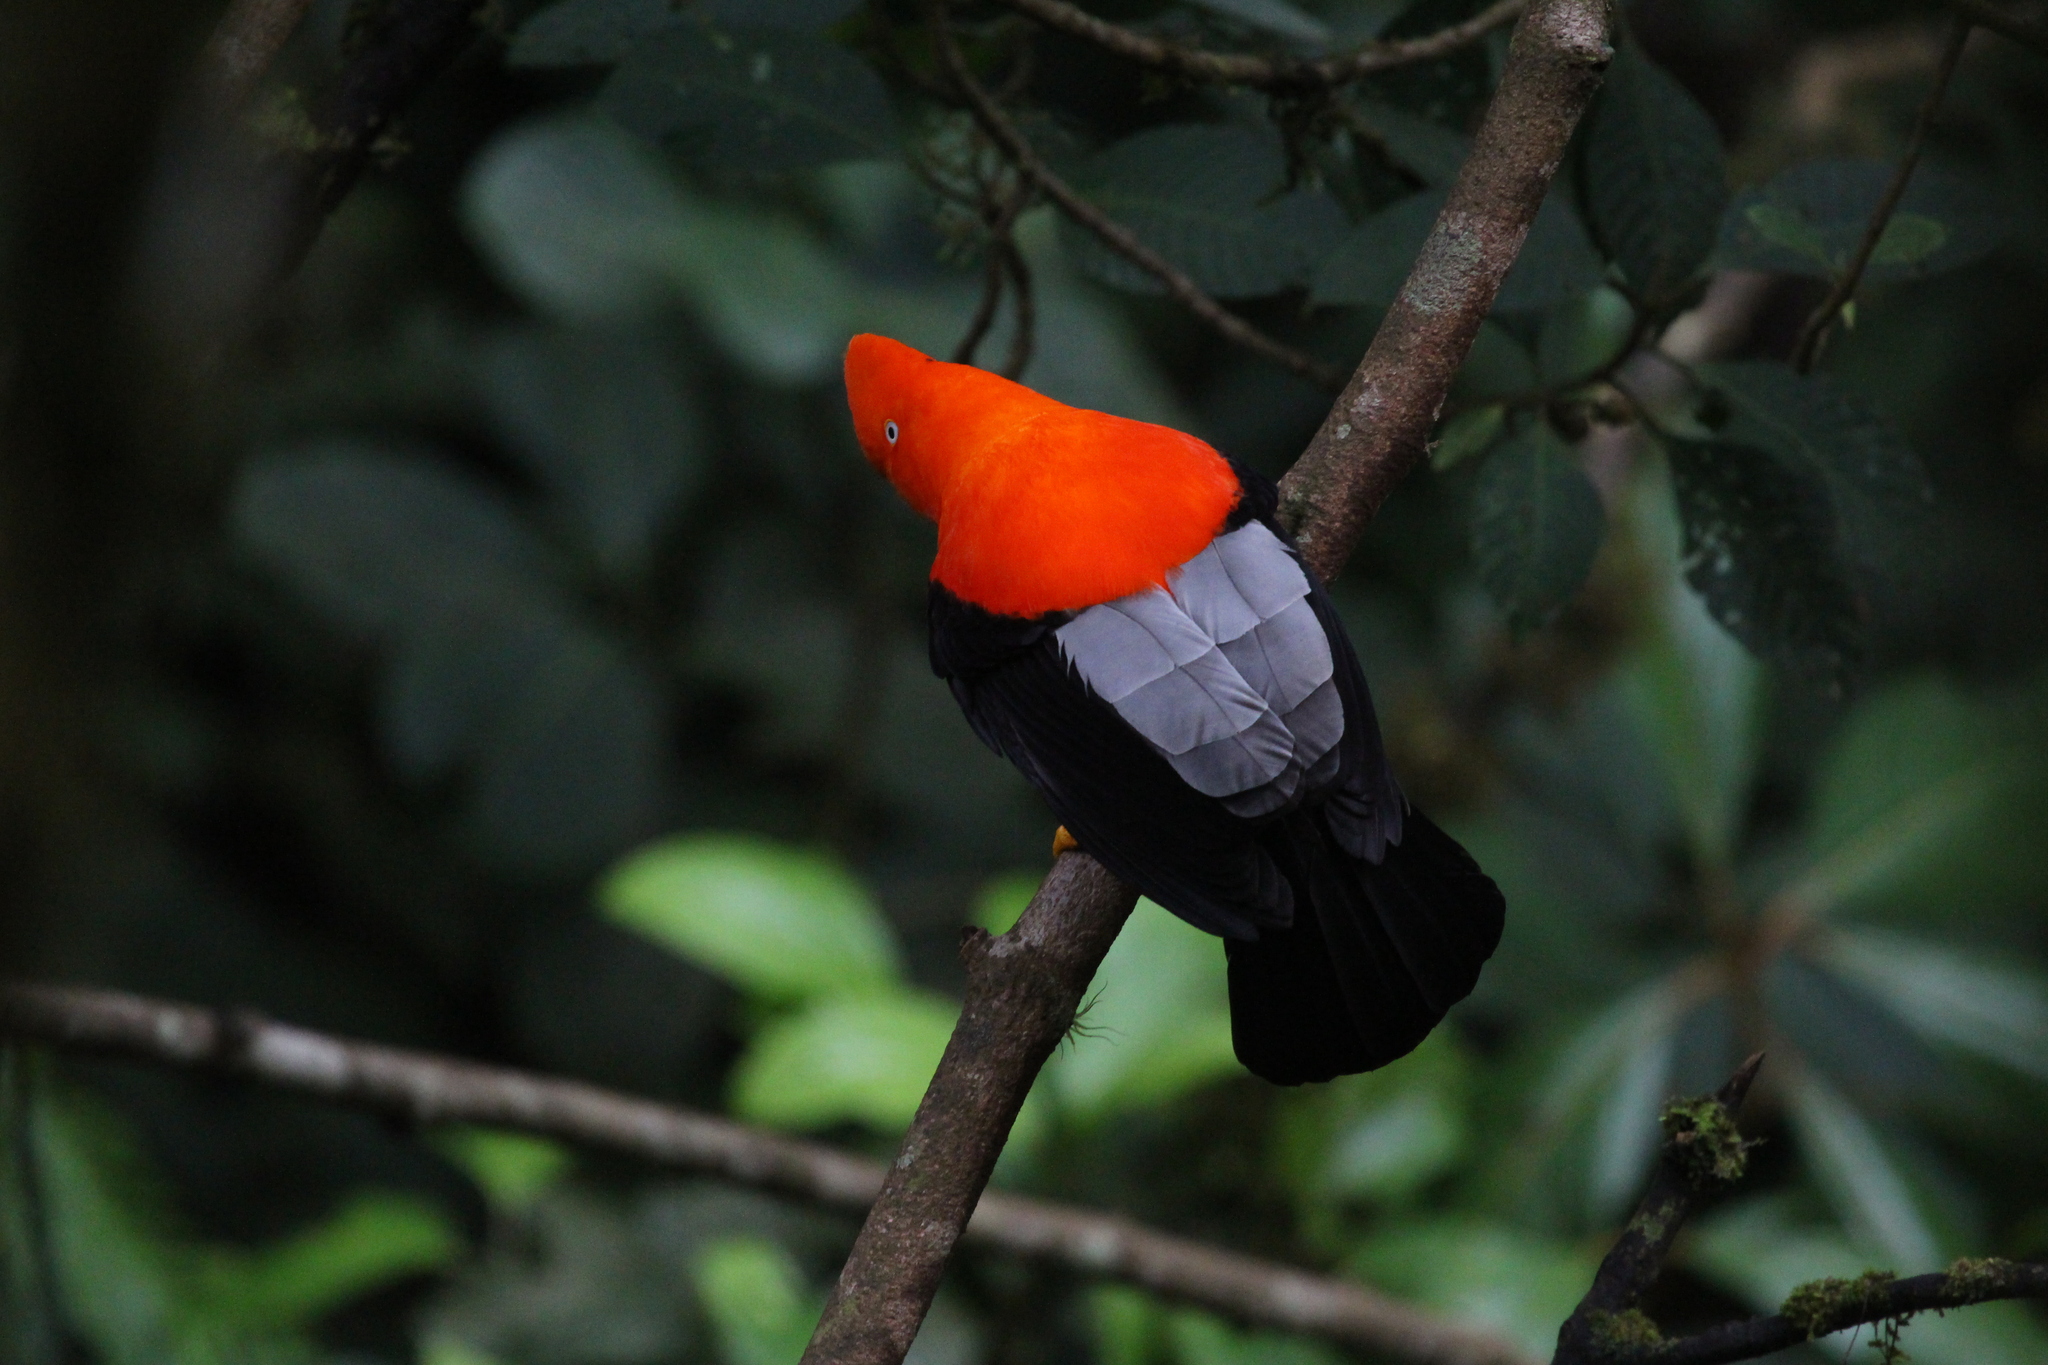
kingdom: Animalia
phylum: Chordata
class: Aves
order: Passeriformes
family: Cotingidae
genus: Rupicola
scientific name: Rupicola peruvianus
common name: Andean cock-of-the-rock
